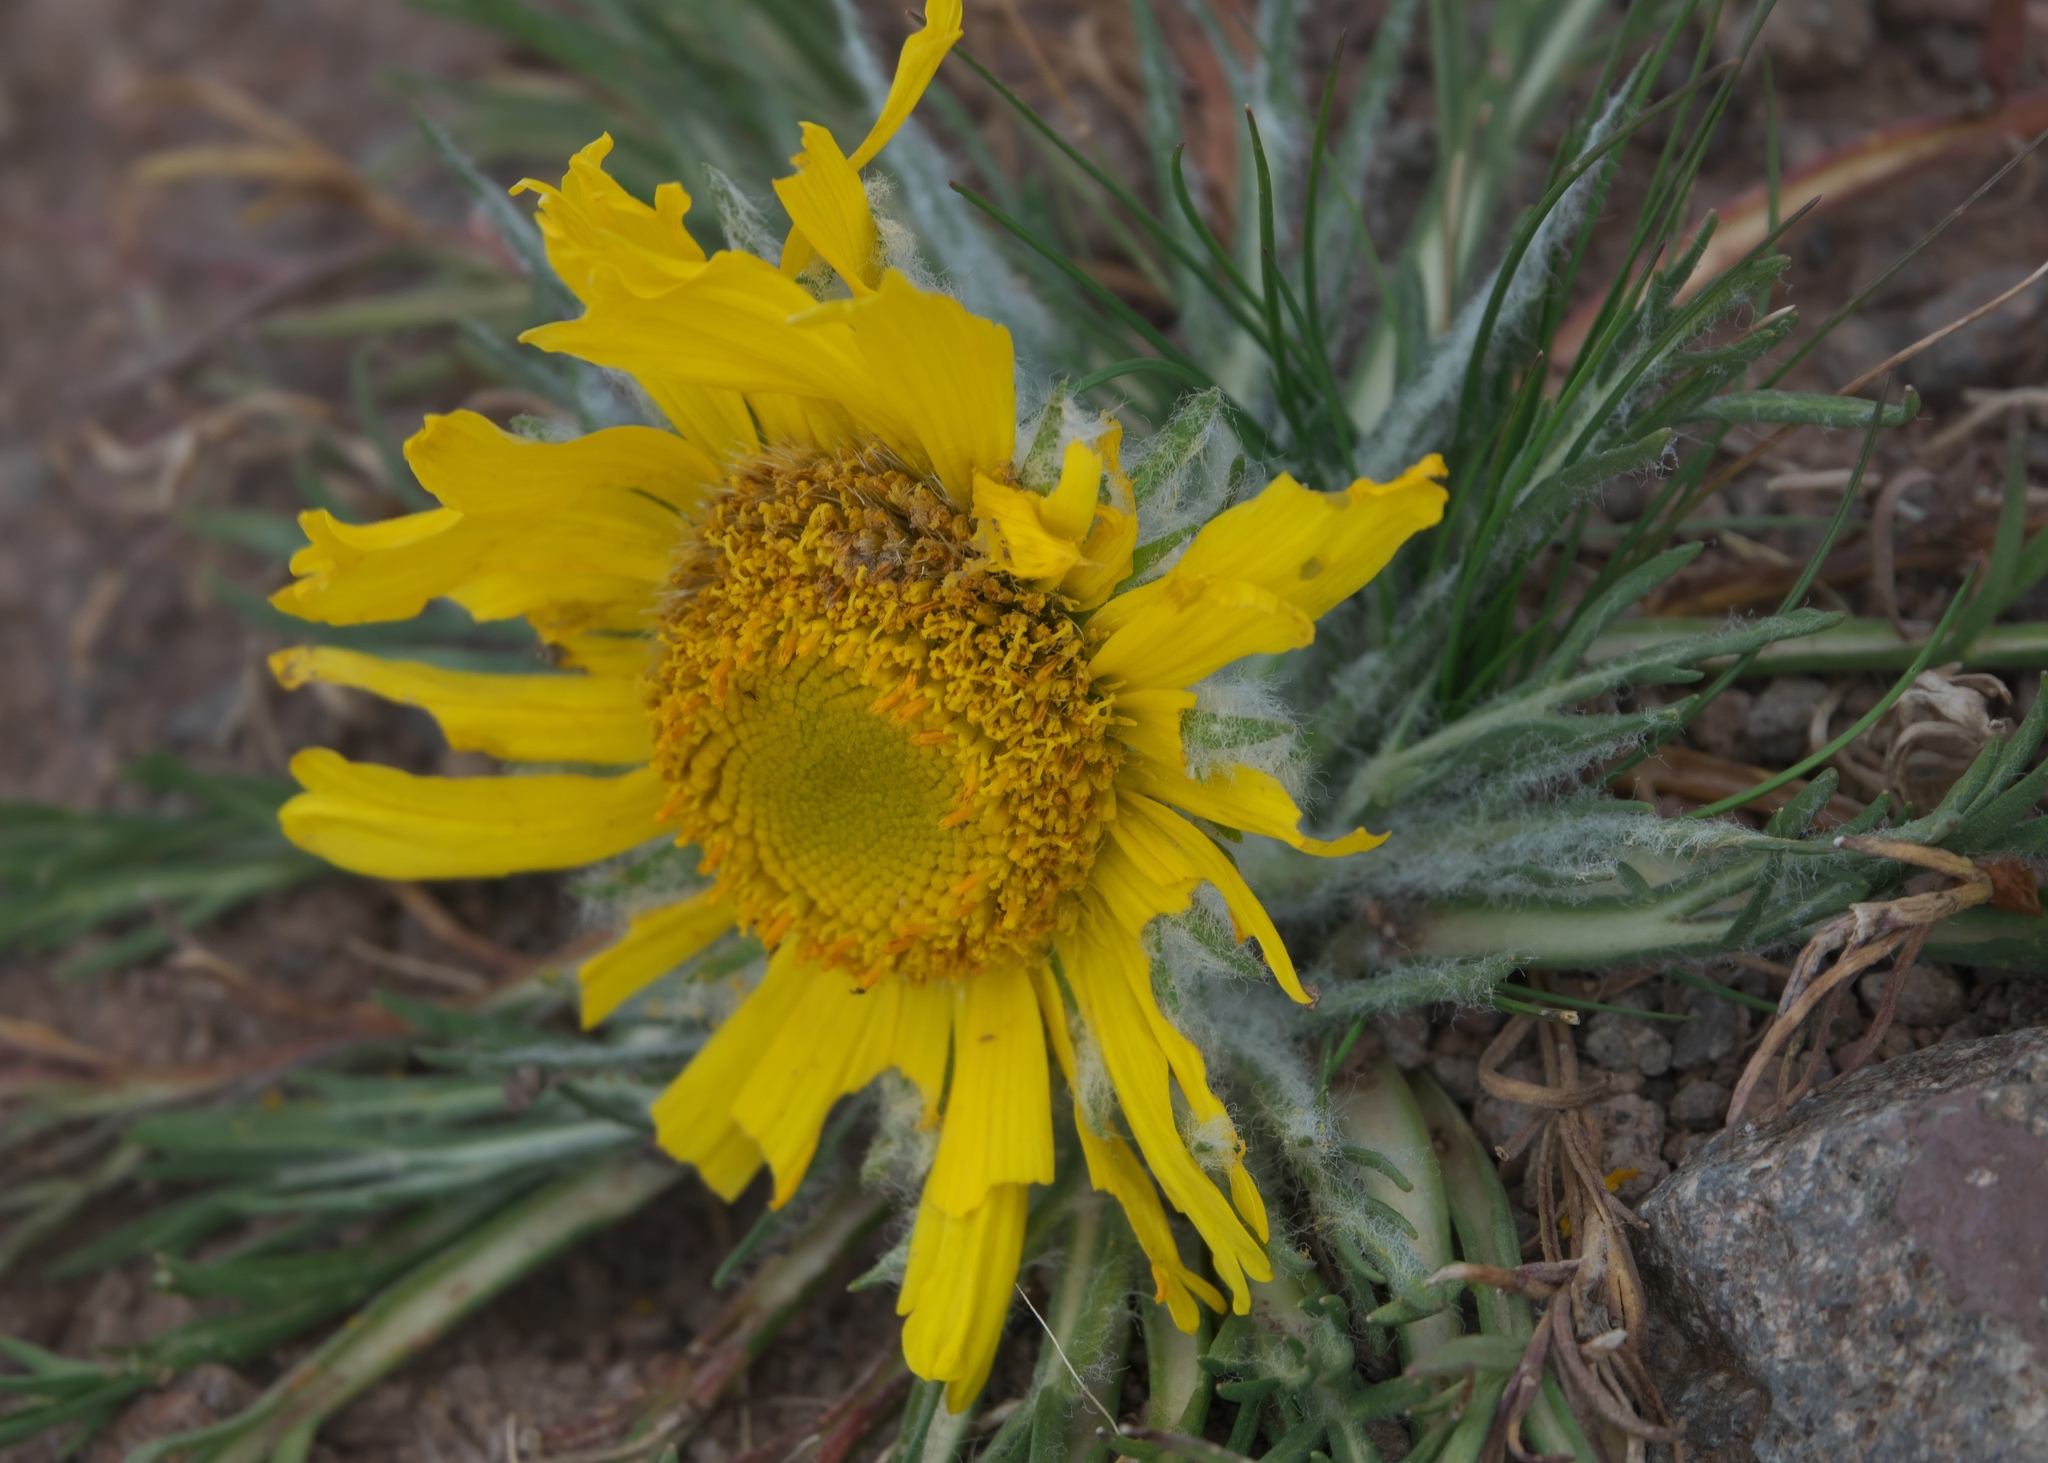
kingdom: Plantae
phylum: Tracheophyta
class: Magnoliopsida
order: Asterales
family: Asteraceae
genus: Hymenoxys
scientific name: Hymenoxys grandiflora
